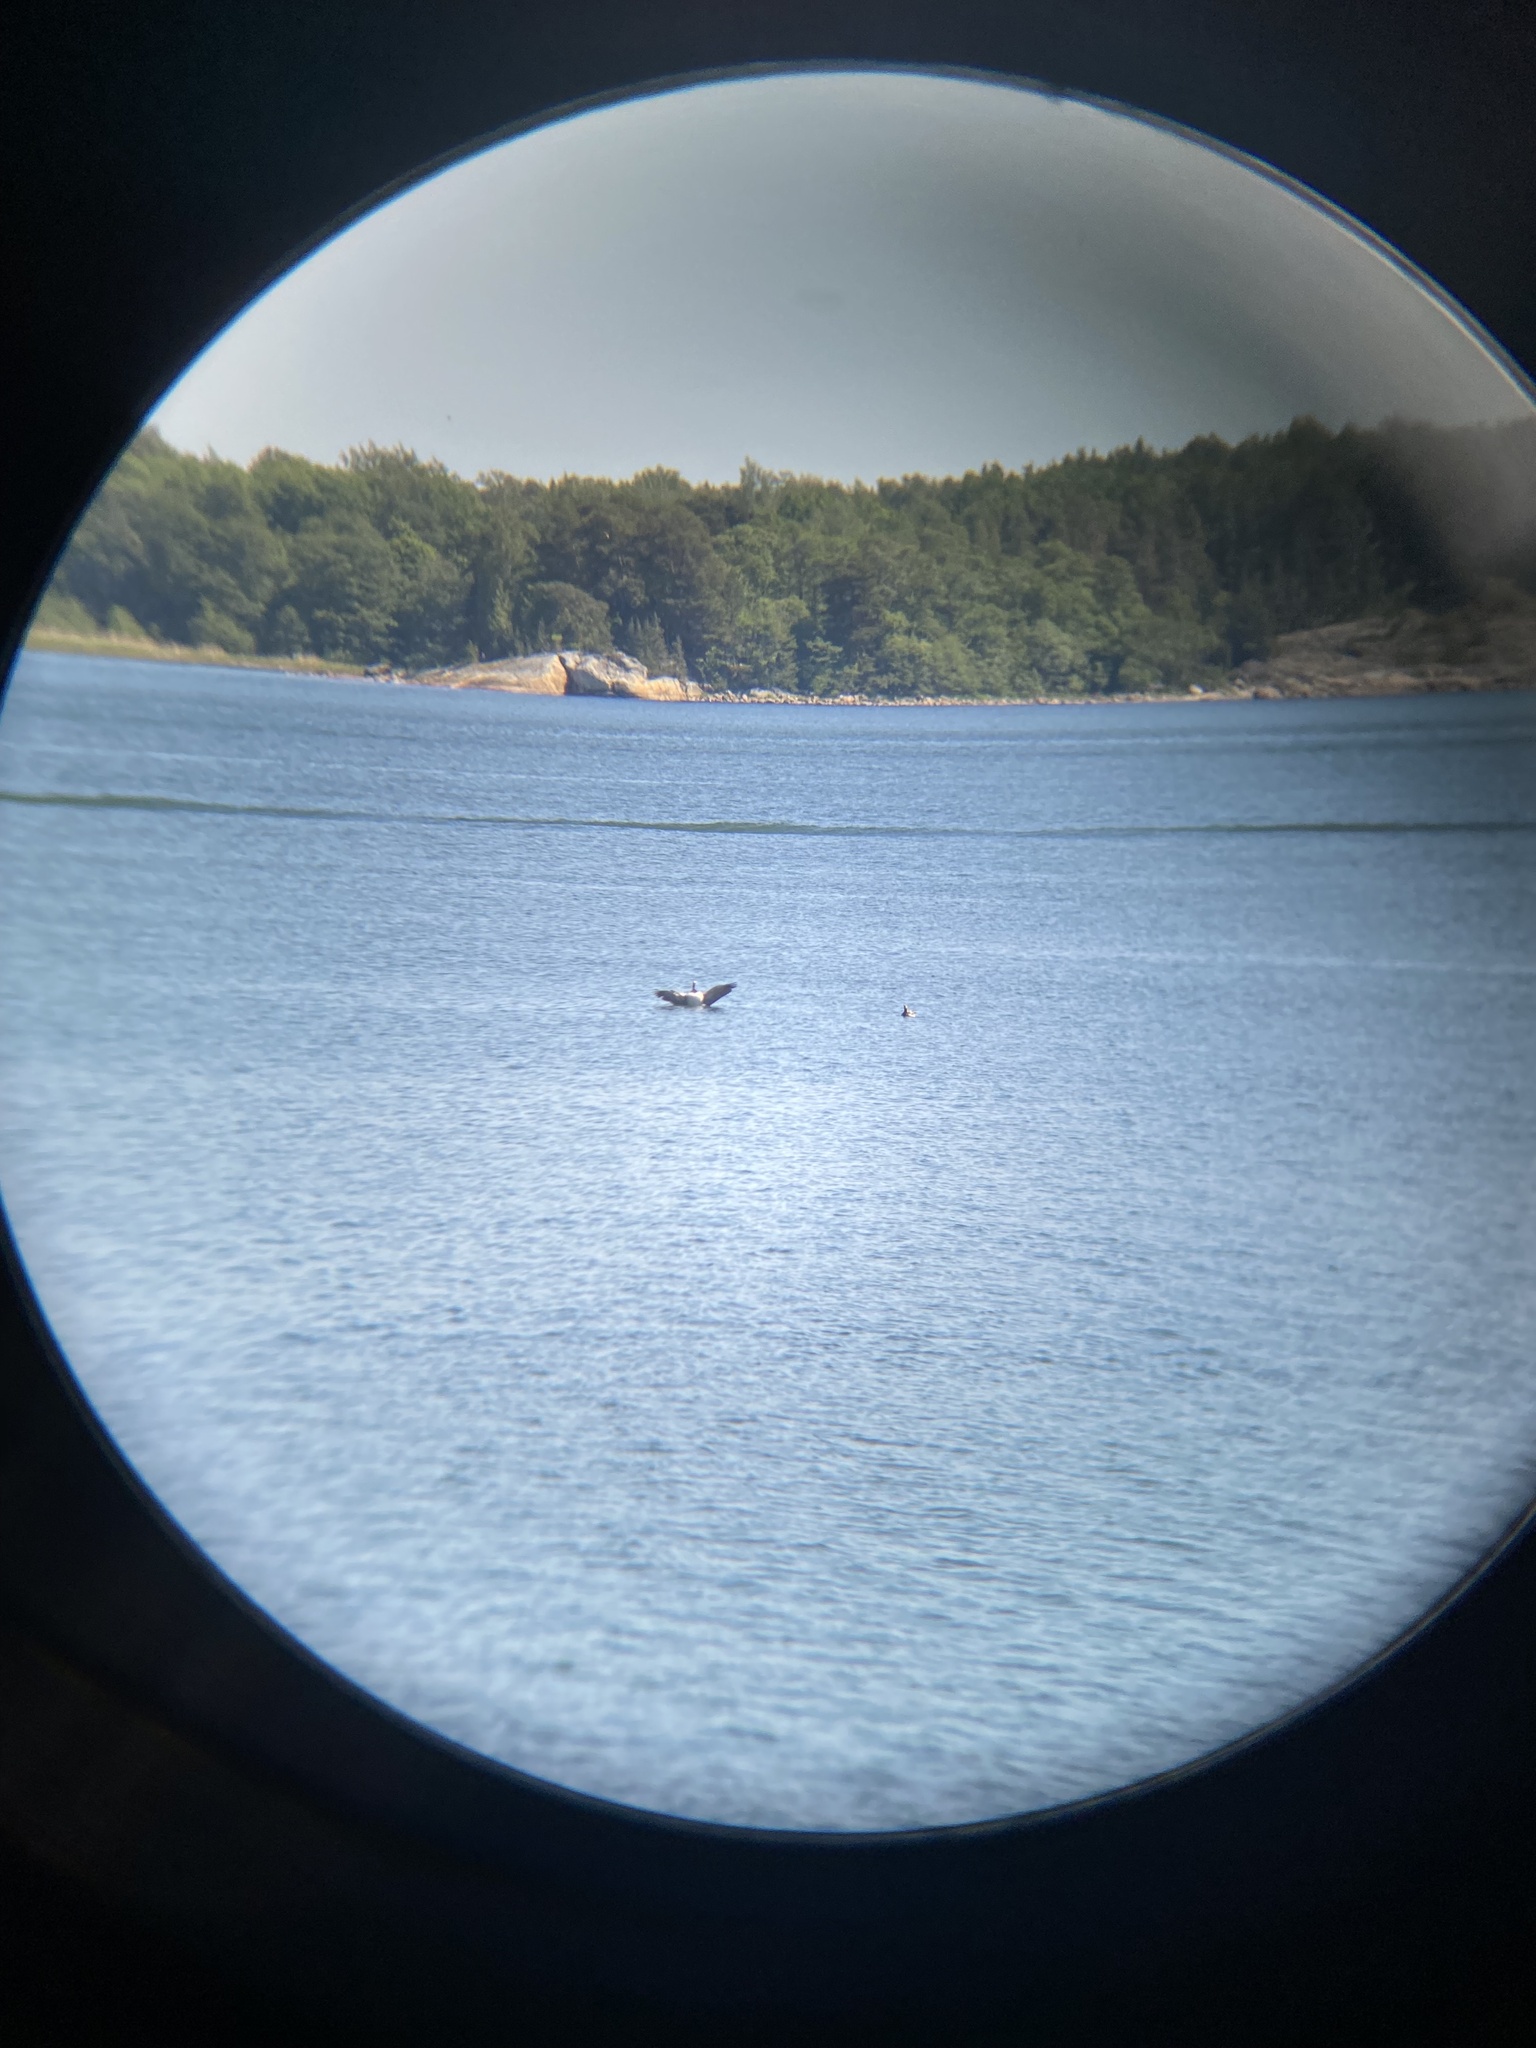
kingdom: Animalia
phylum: Chordata
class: Aves
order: Anseriformes
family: Anatidae
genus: Branta
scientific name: Branta leucopsis
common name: Barnacle goose
